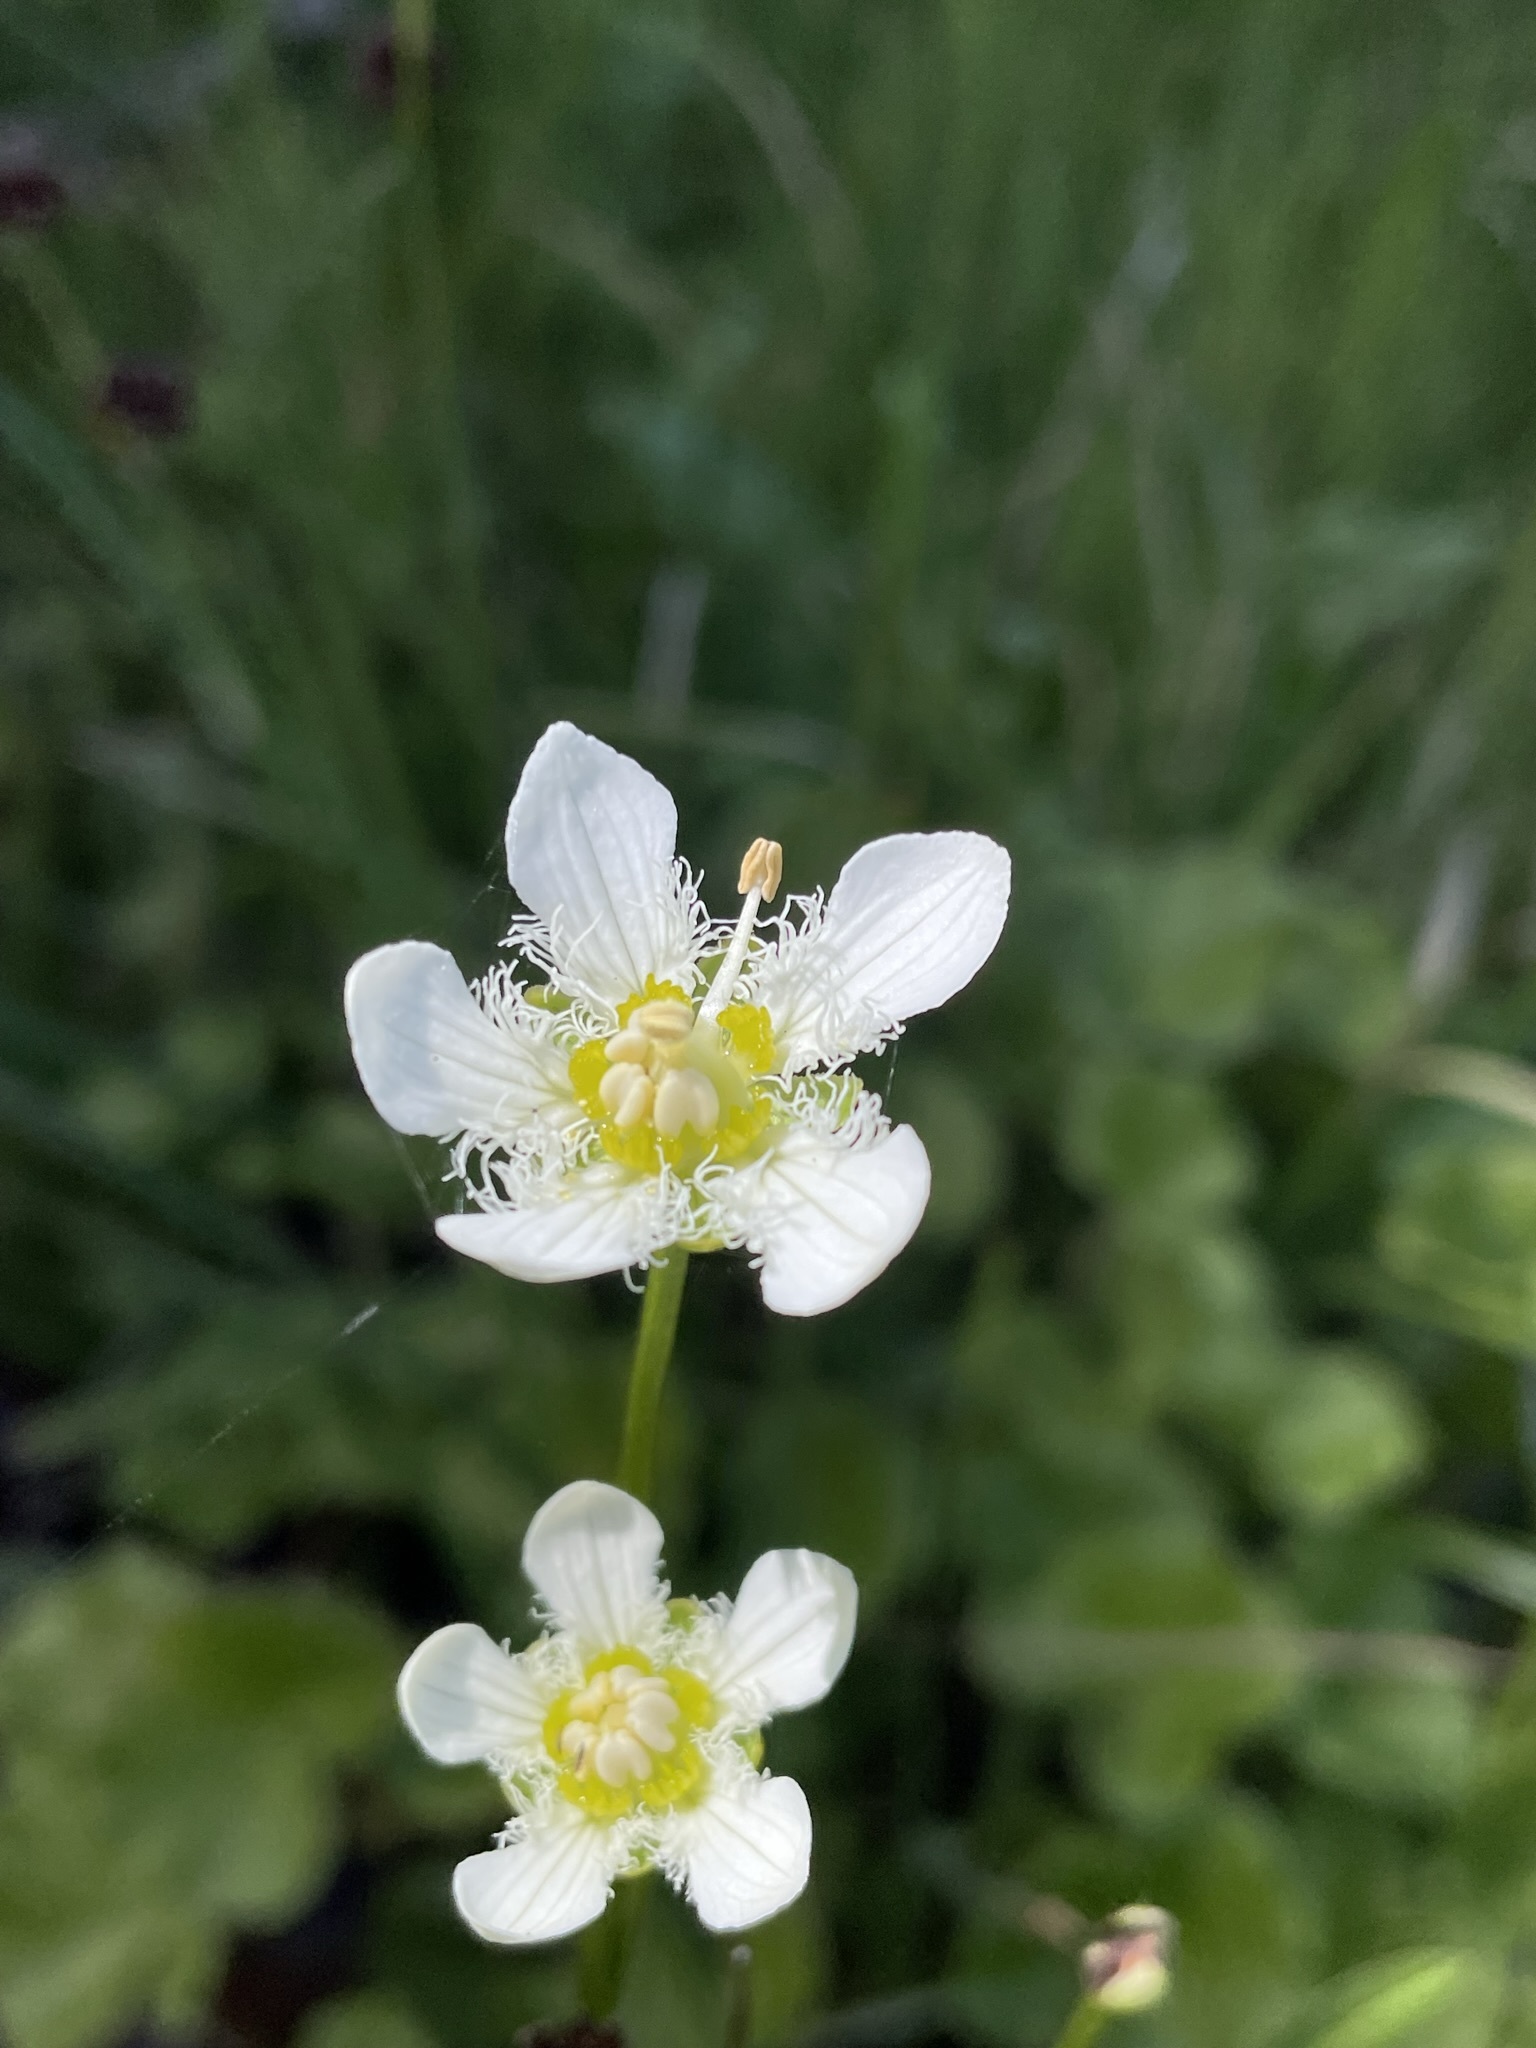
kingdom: Plantae
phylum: Tracheophyta
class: Magnoliopsida
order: Celastrales
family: Parnassiaceae
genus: Parnassia
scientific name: Parnassia fimbriata
